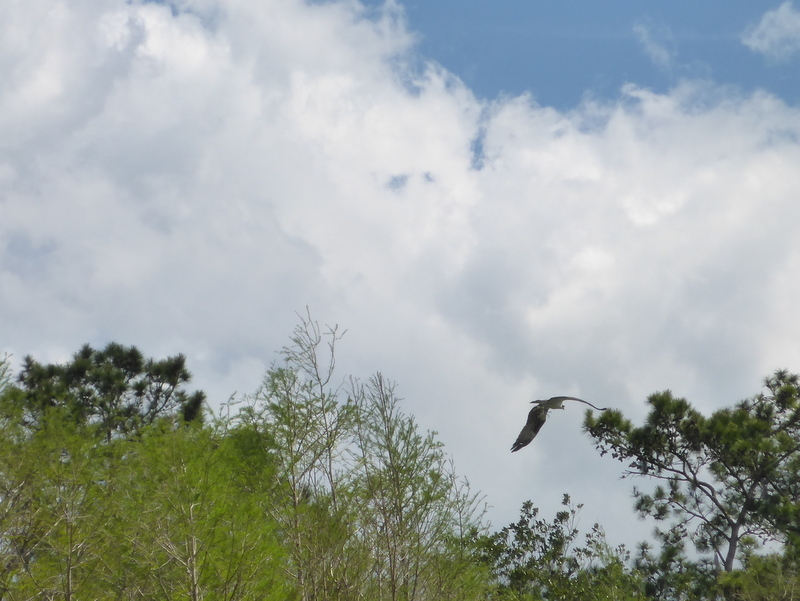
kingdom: Animalia
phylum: Chordata
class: Aves
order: Accipitriformes
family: Pandionidae
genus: Pandion
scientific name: Pandion haliaetus
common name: Osprey
